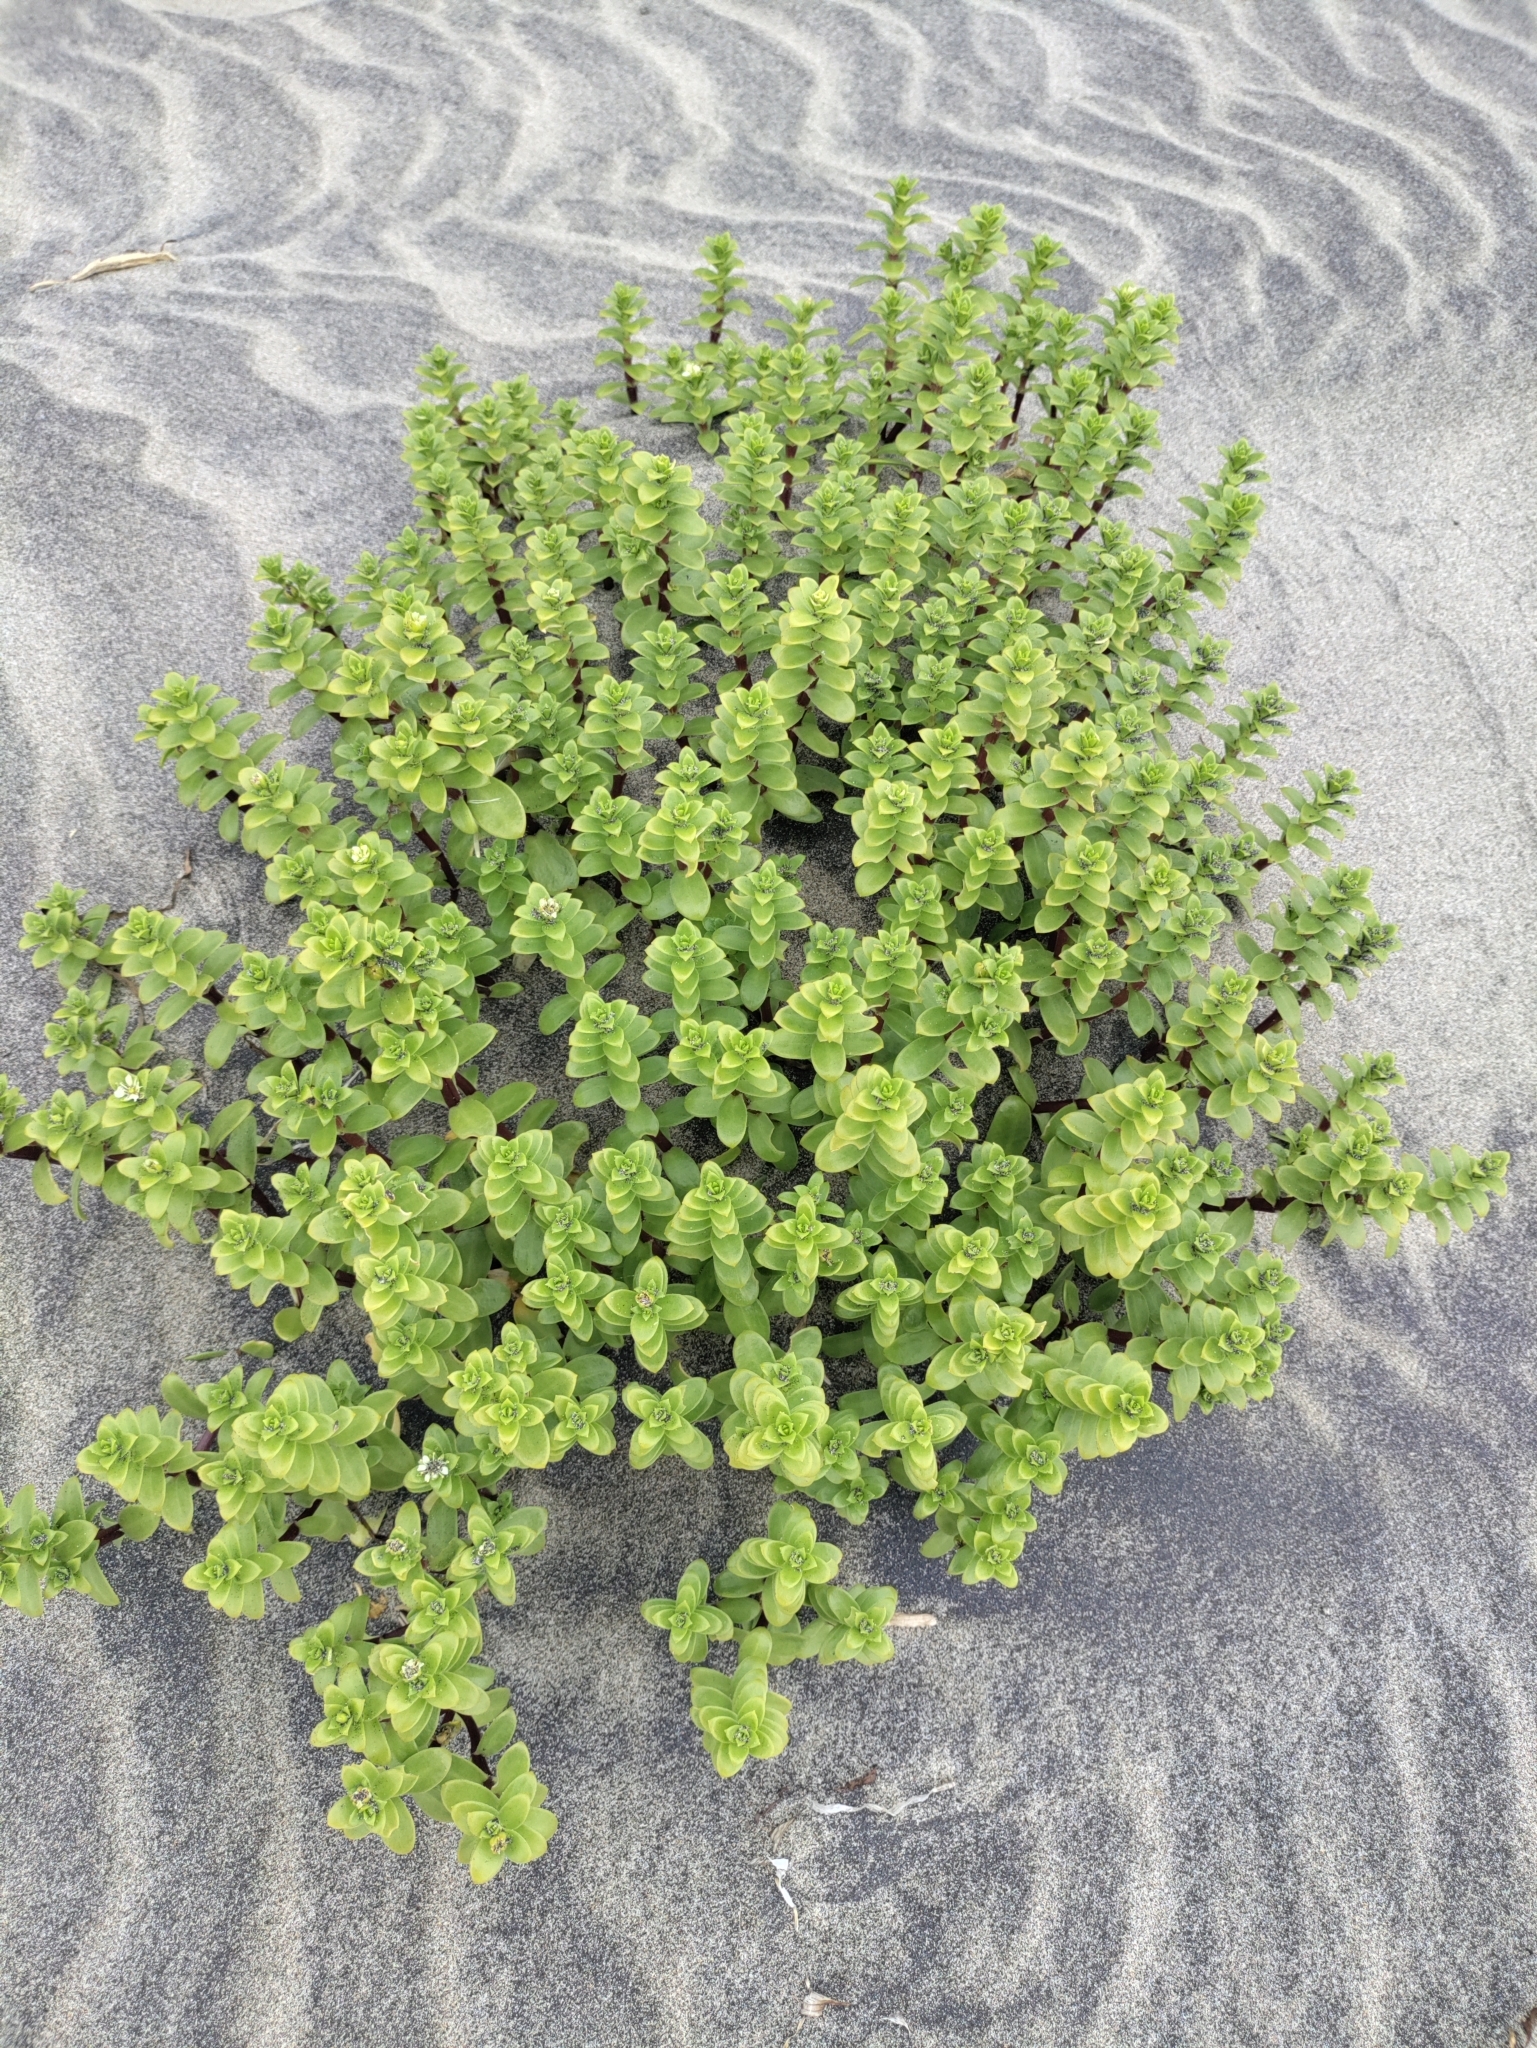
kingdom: Plantae
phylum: Tracheophyta
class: Magnoliopsida
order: Caryophyllales
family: Caryophyllaceae
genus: Honckenya
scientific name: Honckenya peploides
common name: Sea sandwort
